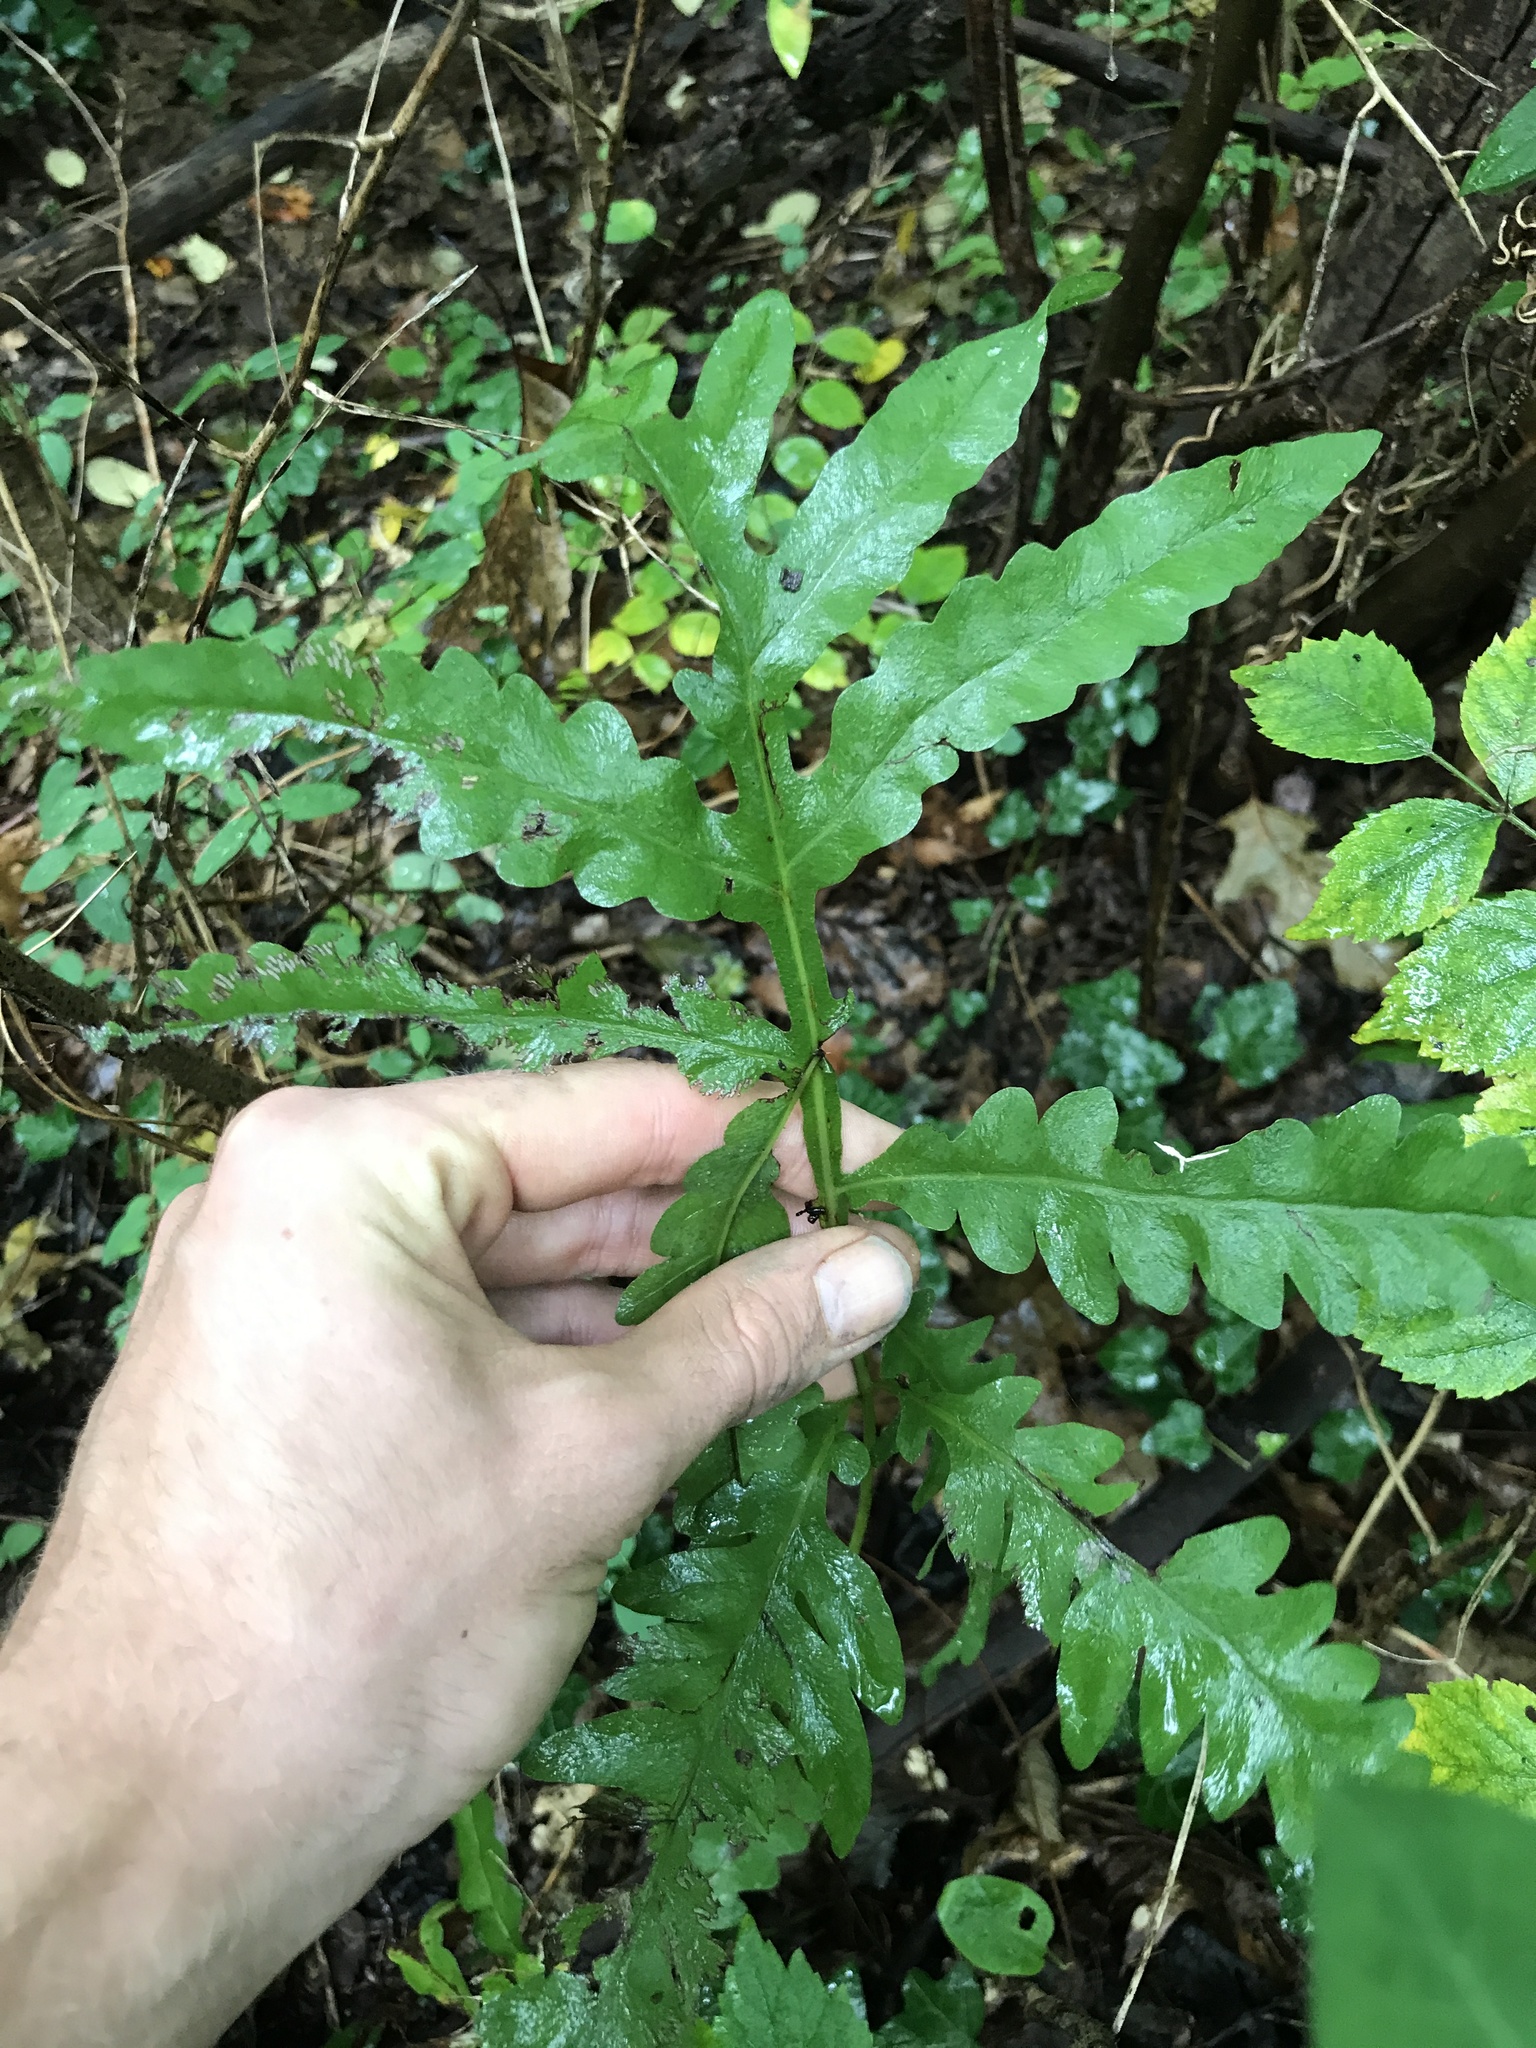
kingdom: Plantae
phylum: Tracheophyta
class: Polypodiopsida
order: Polypodiales
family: Onocleaceae
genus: Onoclea
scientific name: Onoclea sensibilis
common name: Sensitive fern
